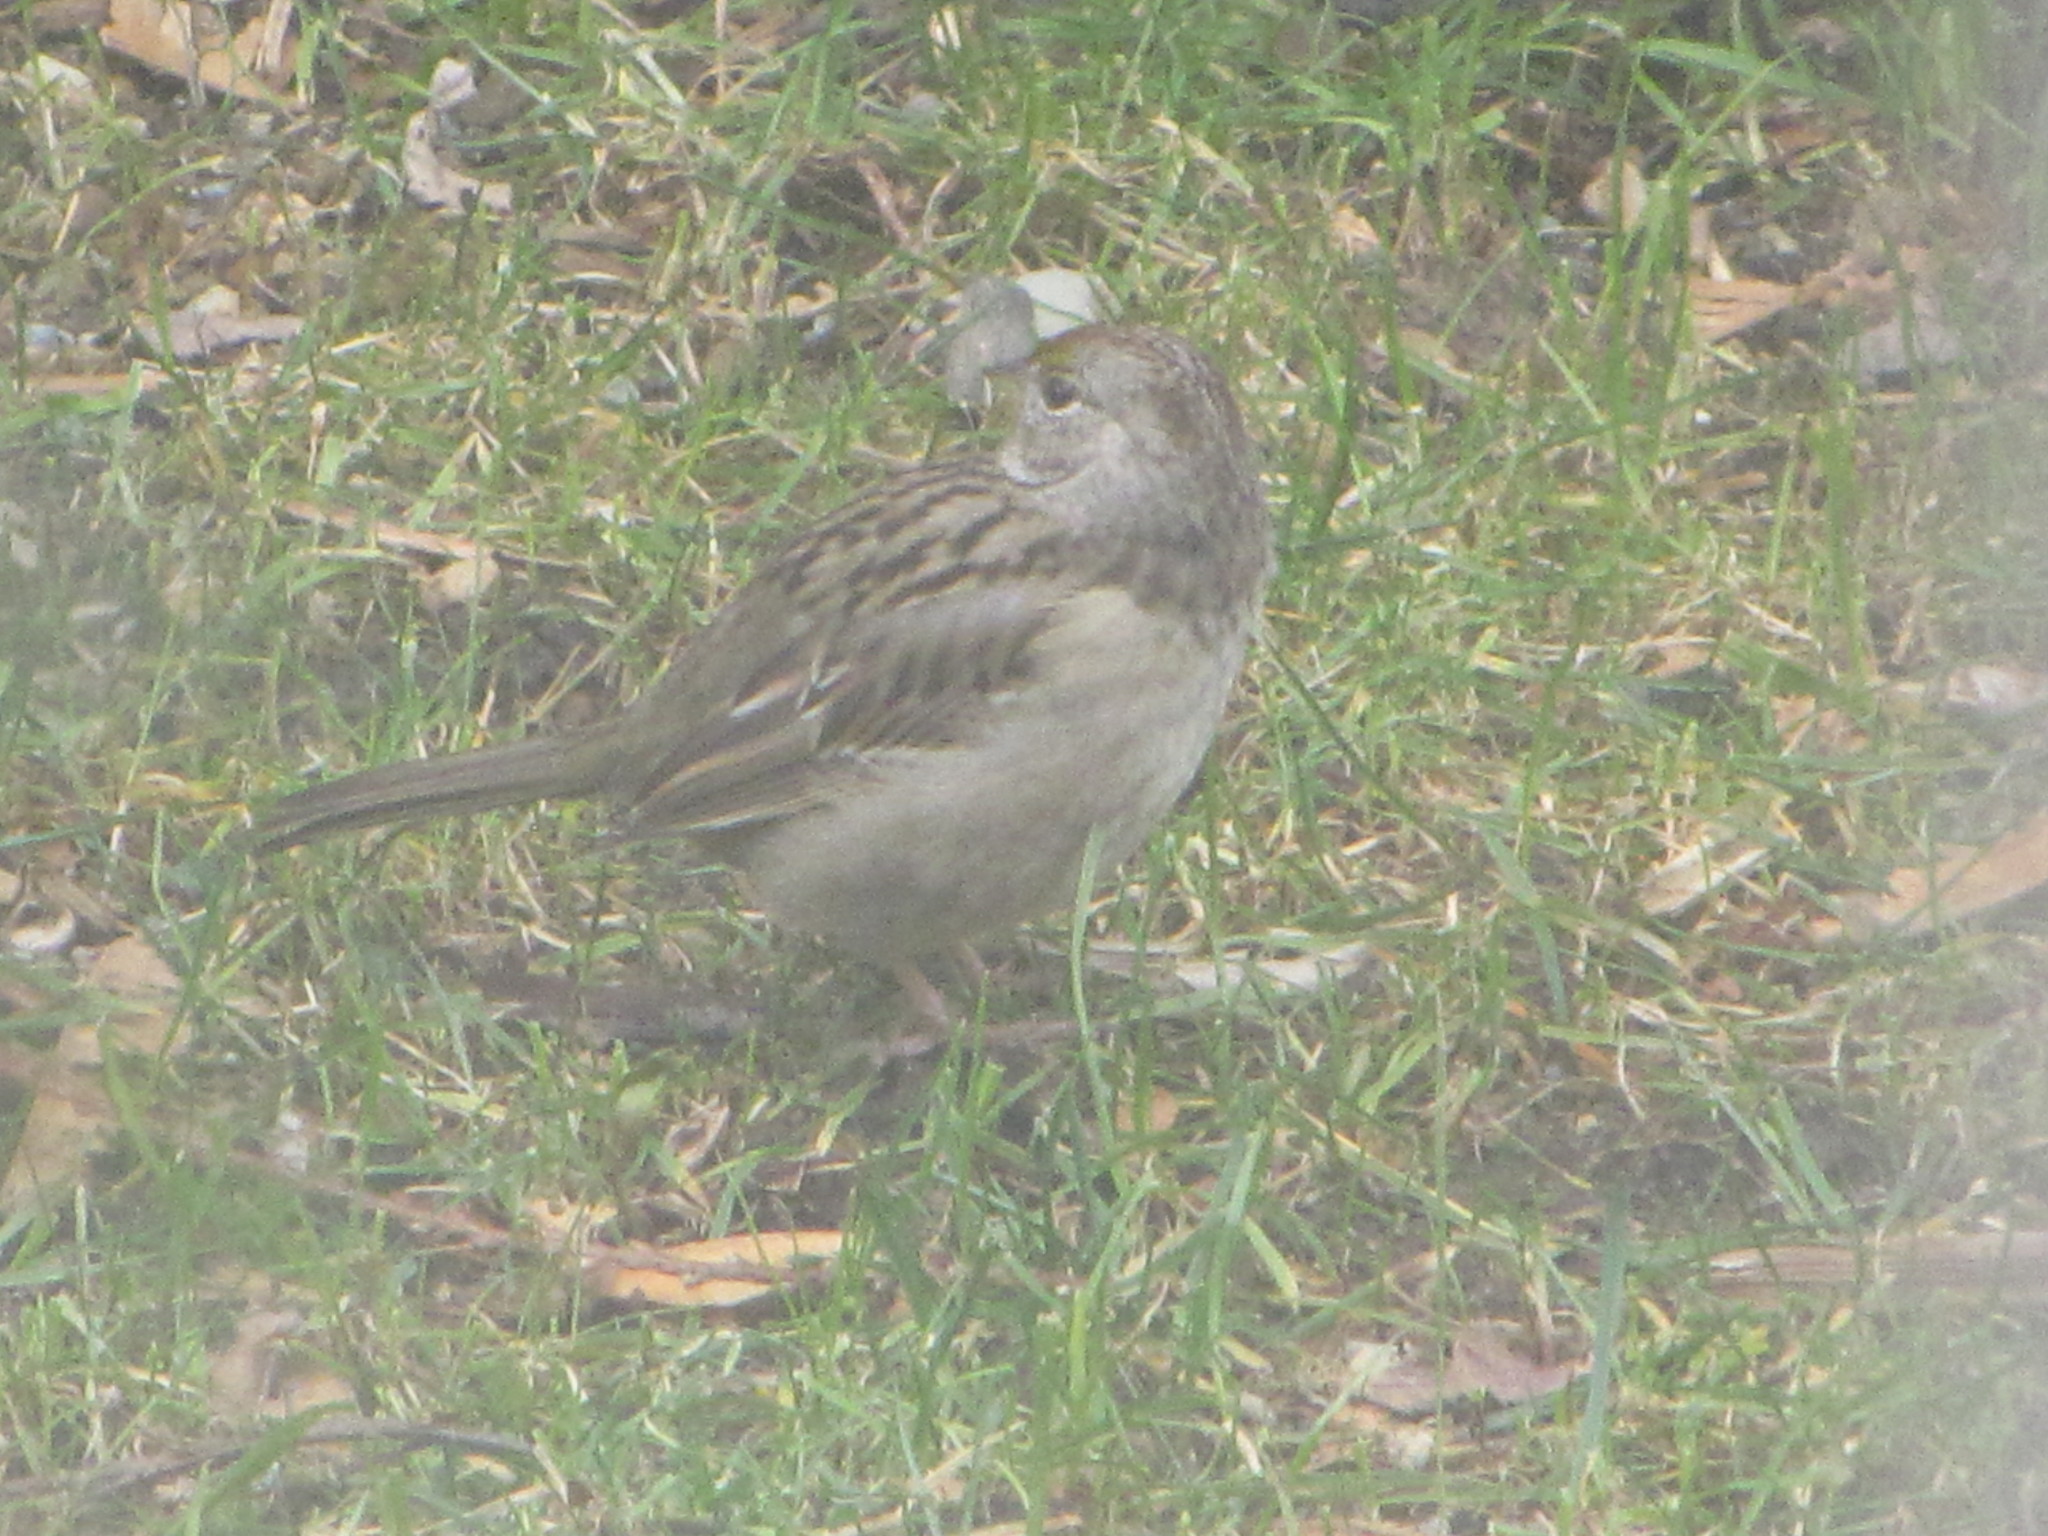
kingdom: Animalia
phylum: Chordata
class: Aves
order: Passeriformes
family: Passerellidae
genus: Zonotrichia
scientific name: Zonotrichia atricapilla
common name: Golden-crowned sparrow
